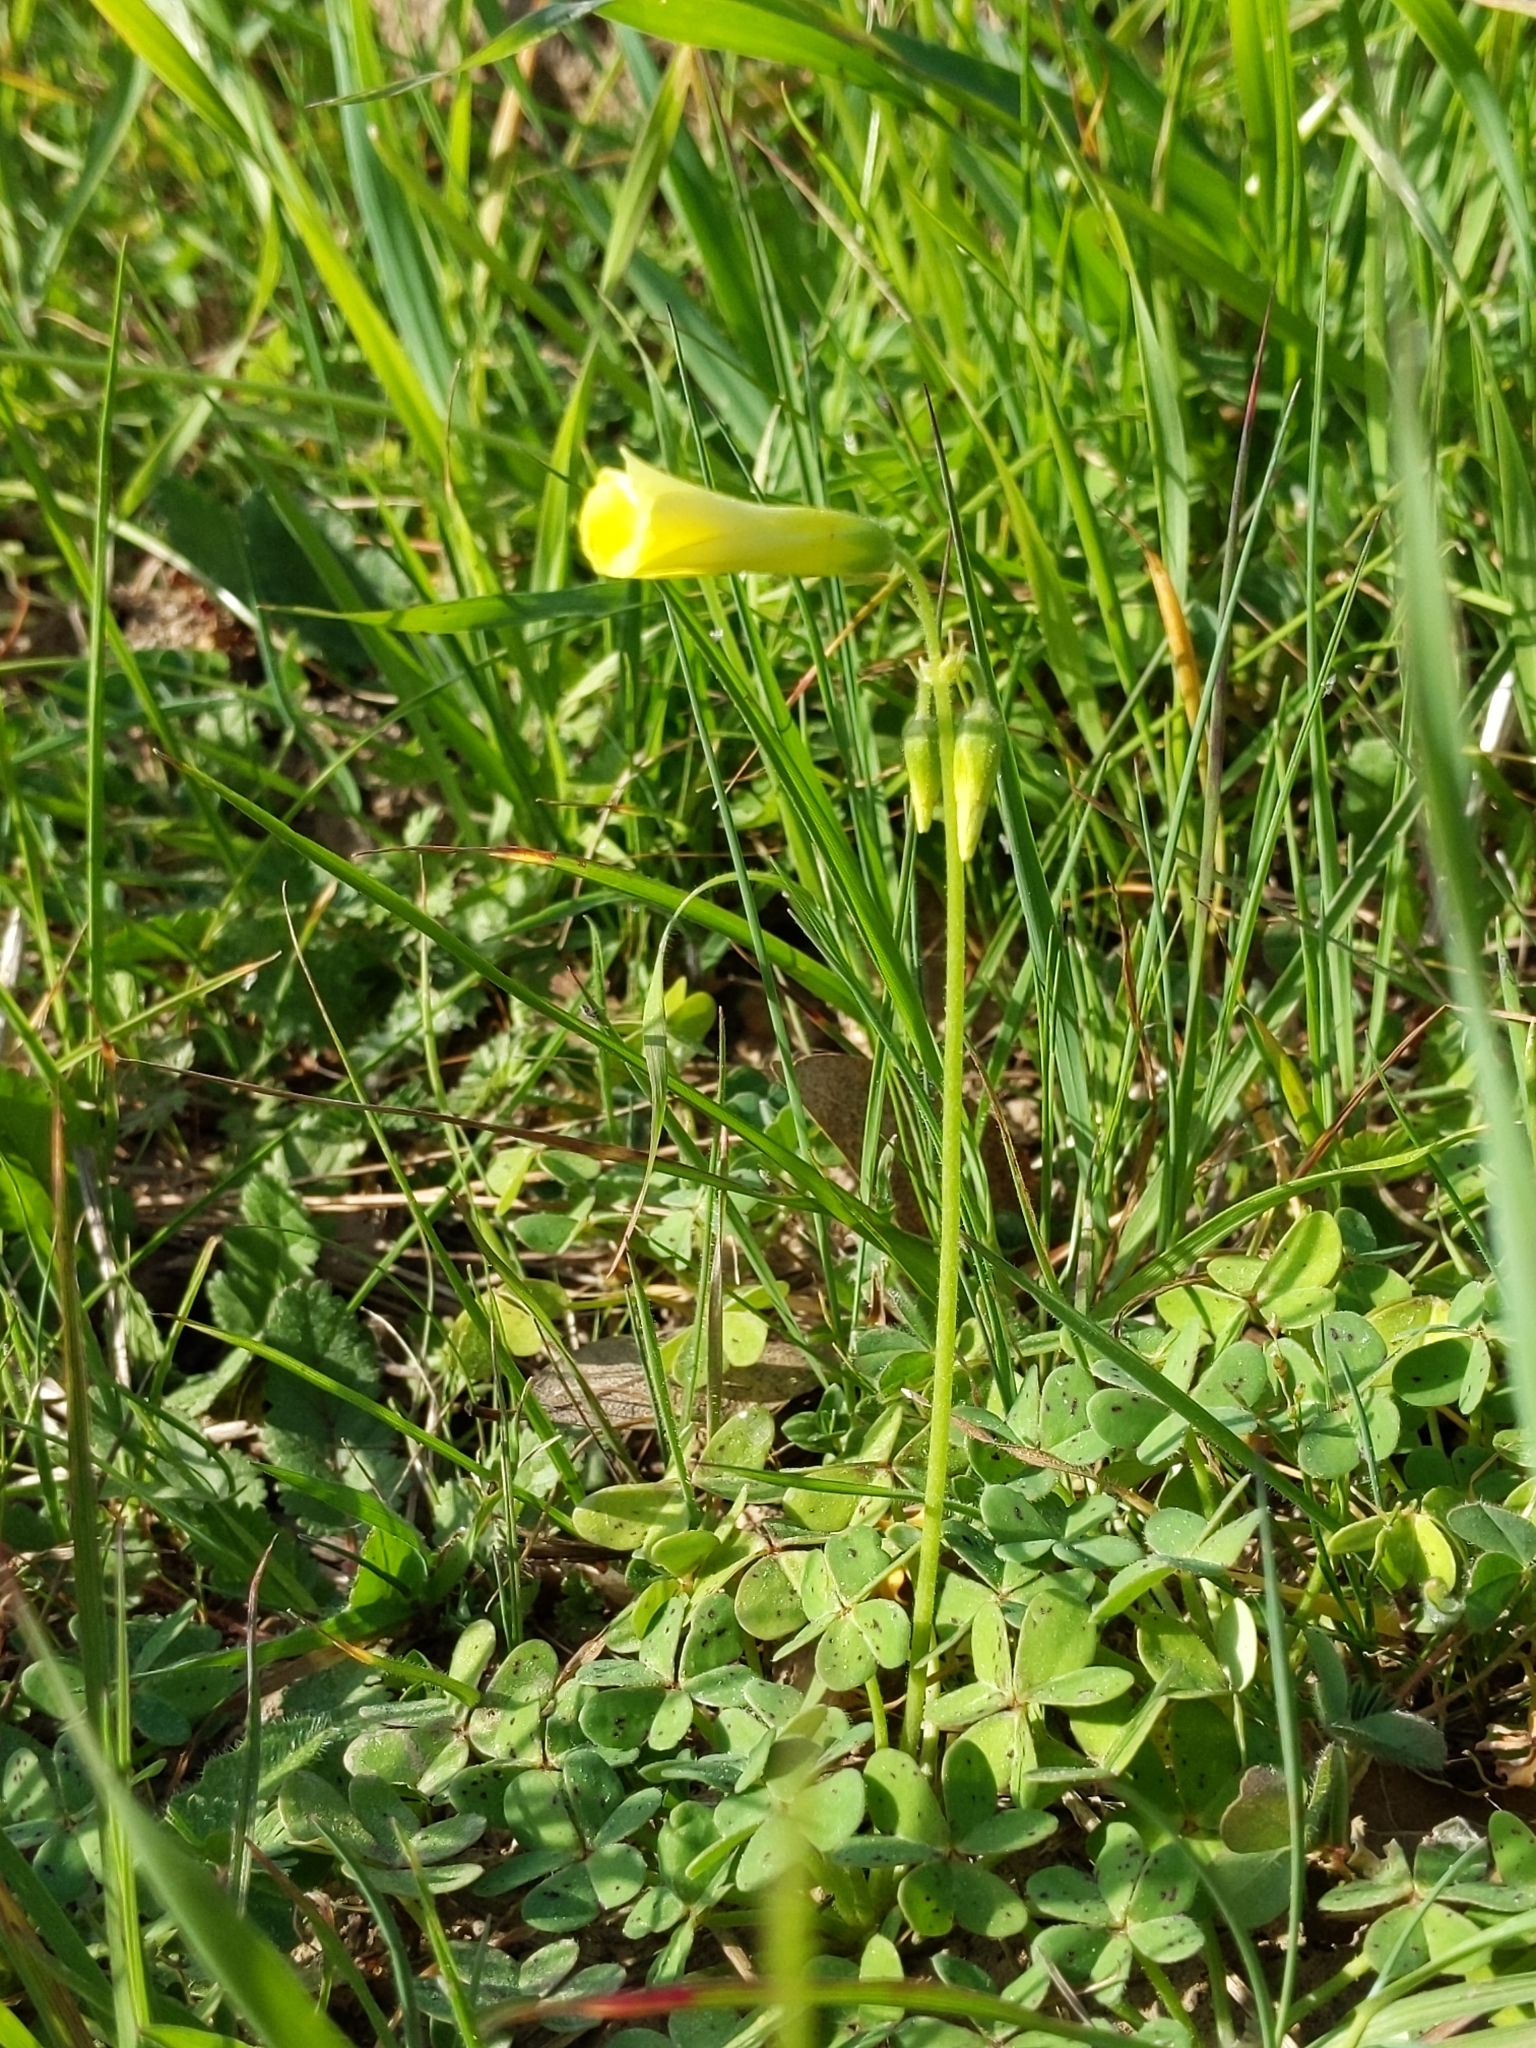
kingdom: Plantae
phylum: Tracheophyta
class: Magnoliopsida
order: Oxalidales
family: Oxalidaceae
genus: Oxalis
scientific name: Oxalis pes-caprae
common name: Bermuda-buttercup
